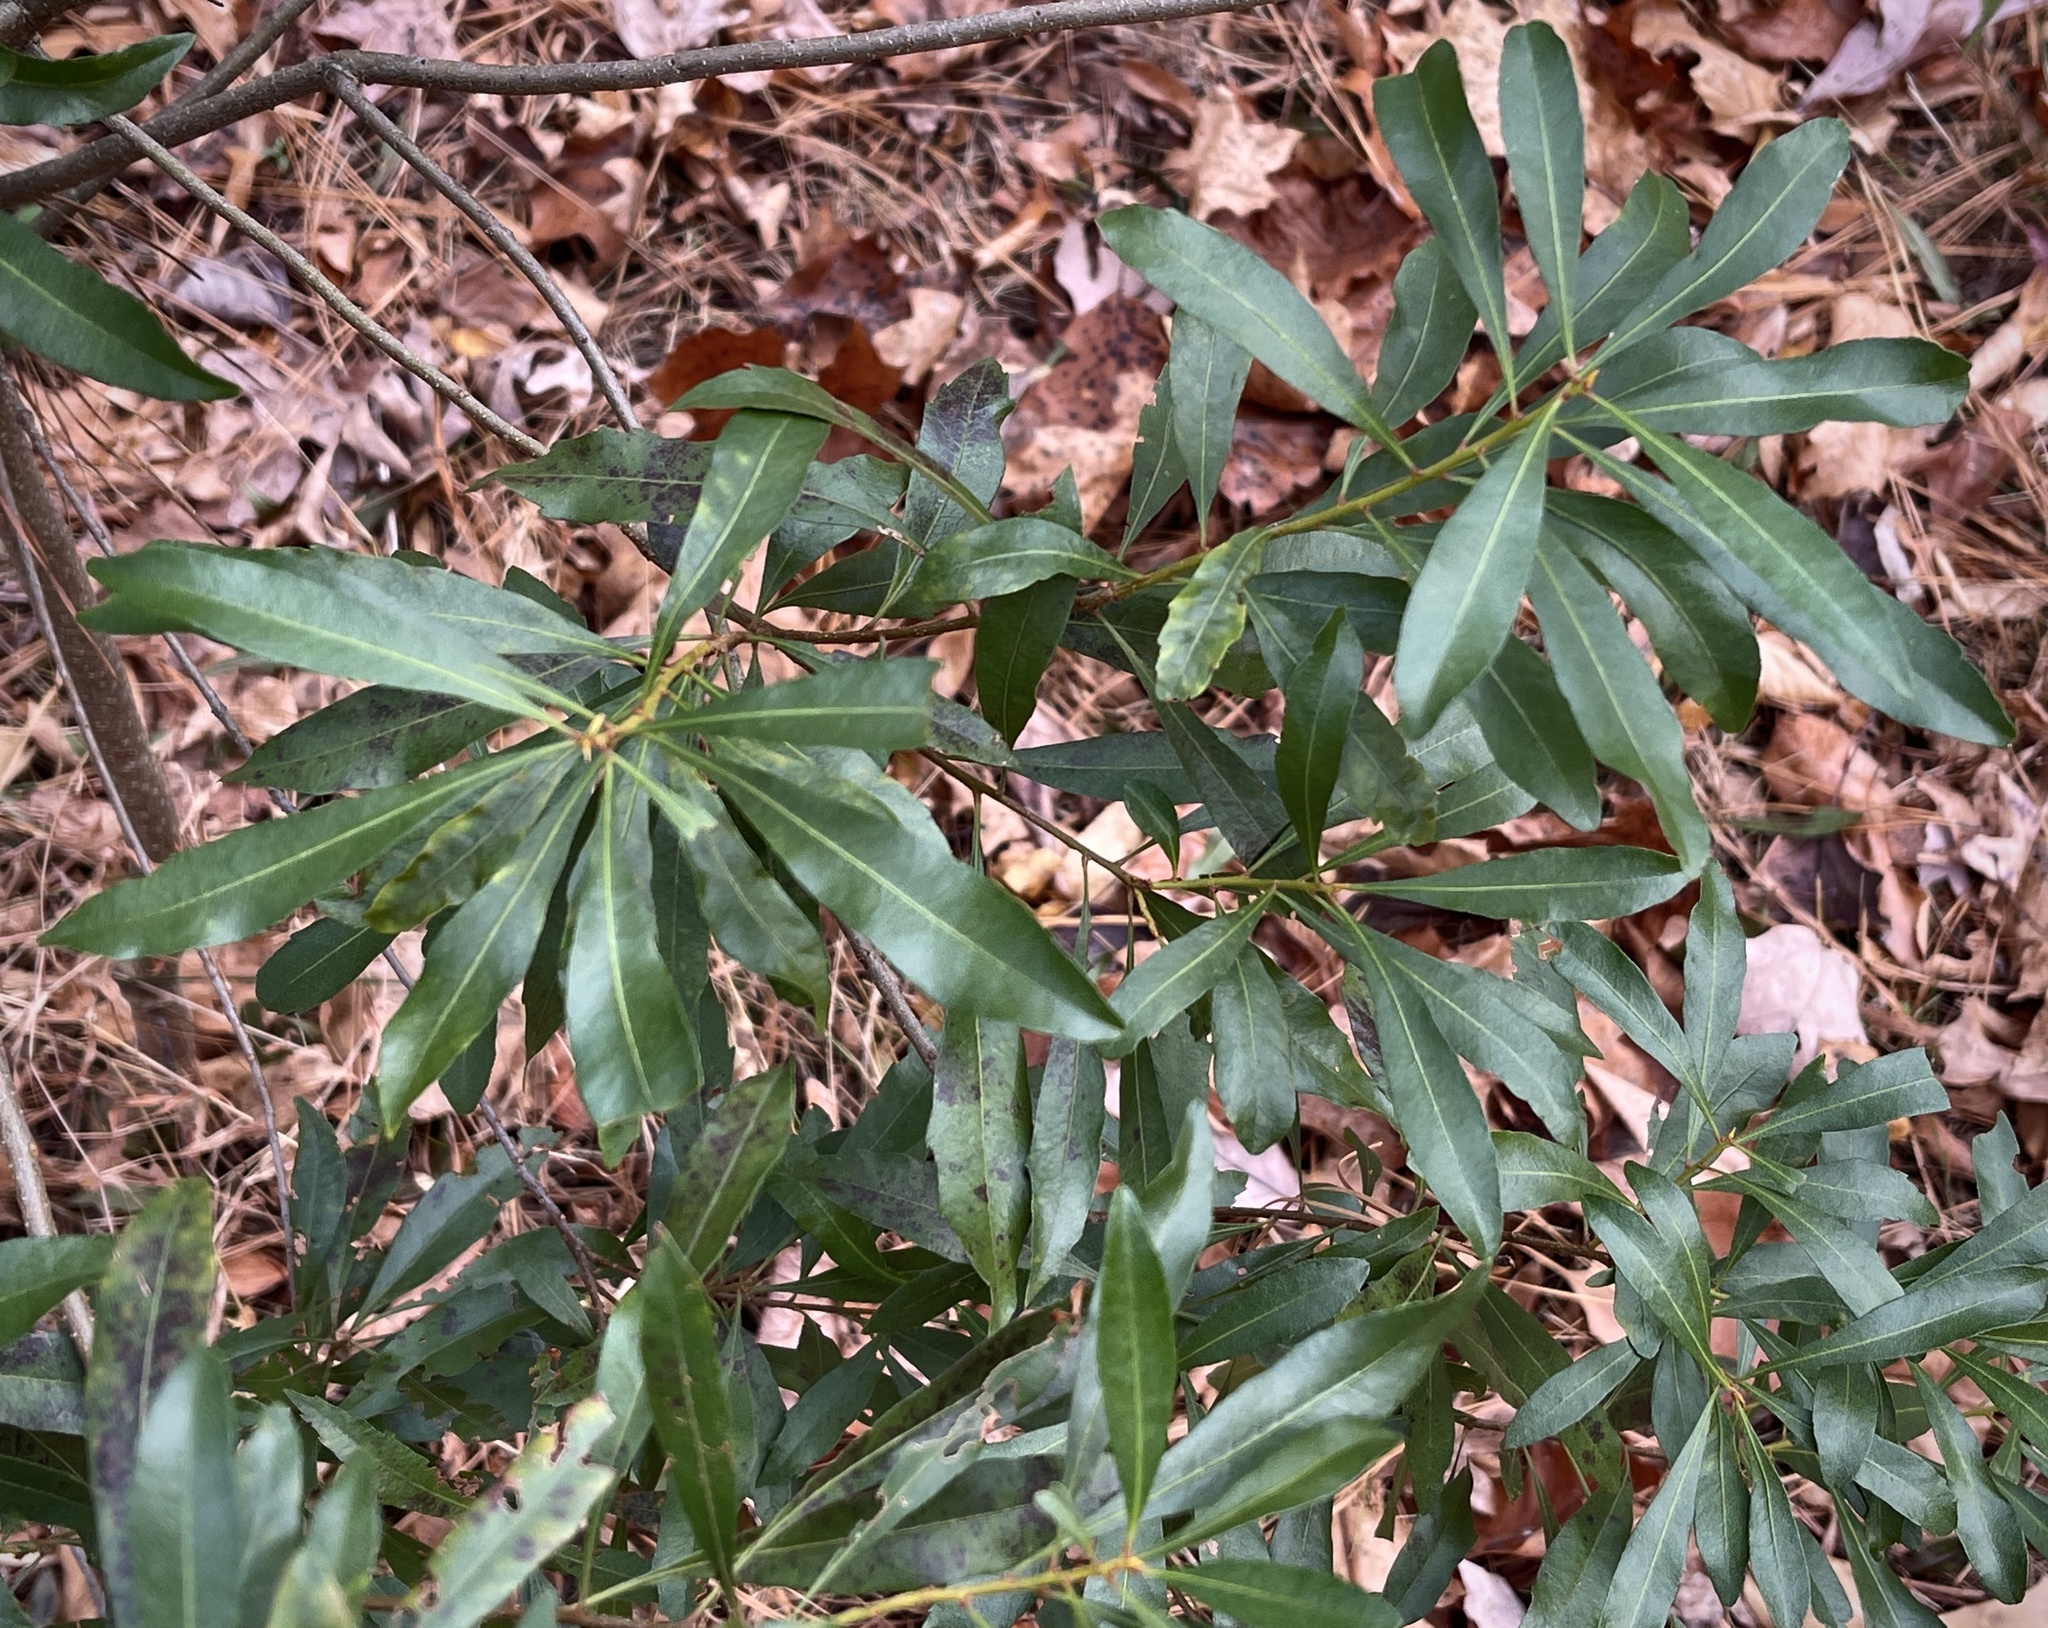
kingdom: Plantae
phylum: Tracheophyta
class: Magnoliopsida
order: Fagales
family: Myricaceae
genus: Morella
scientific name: Morella cerifera
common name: Wax myrtle
